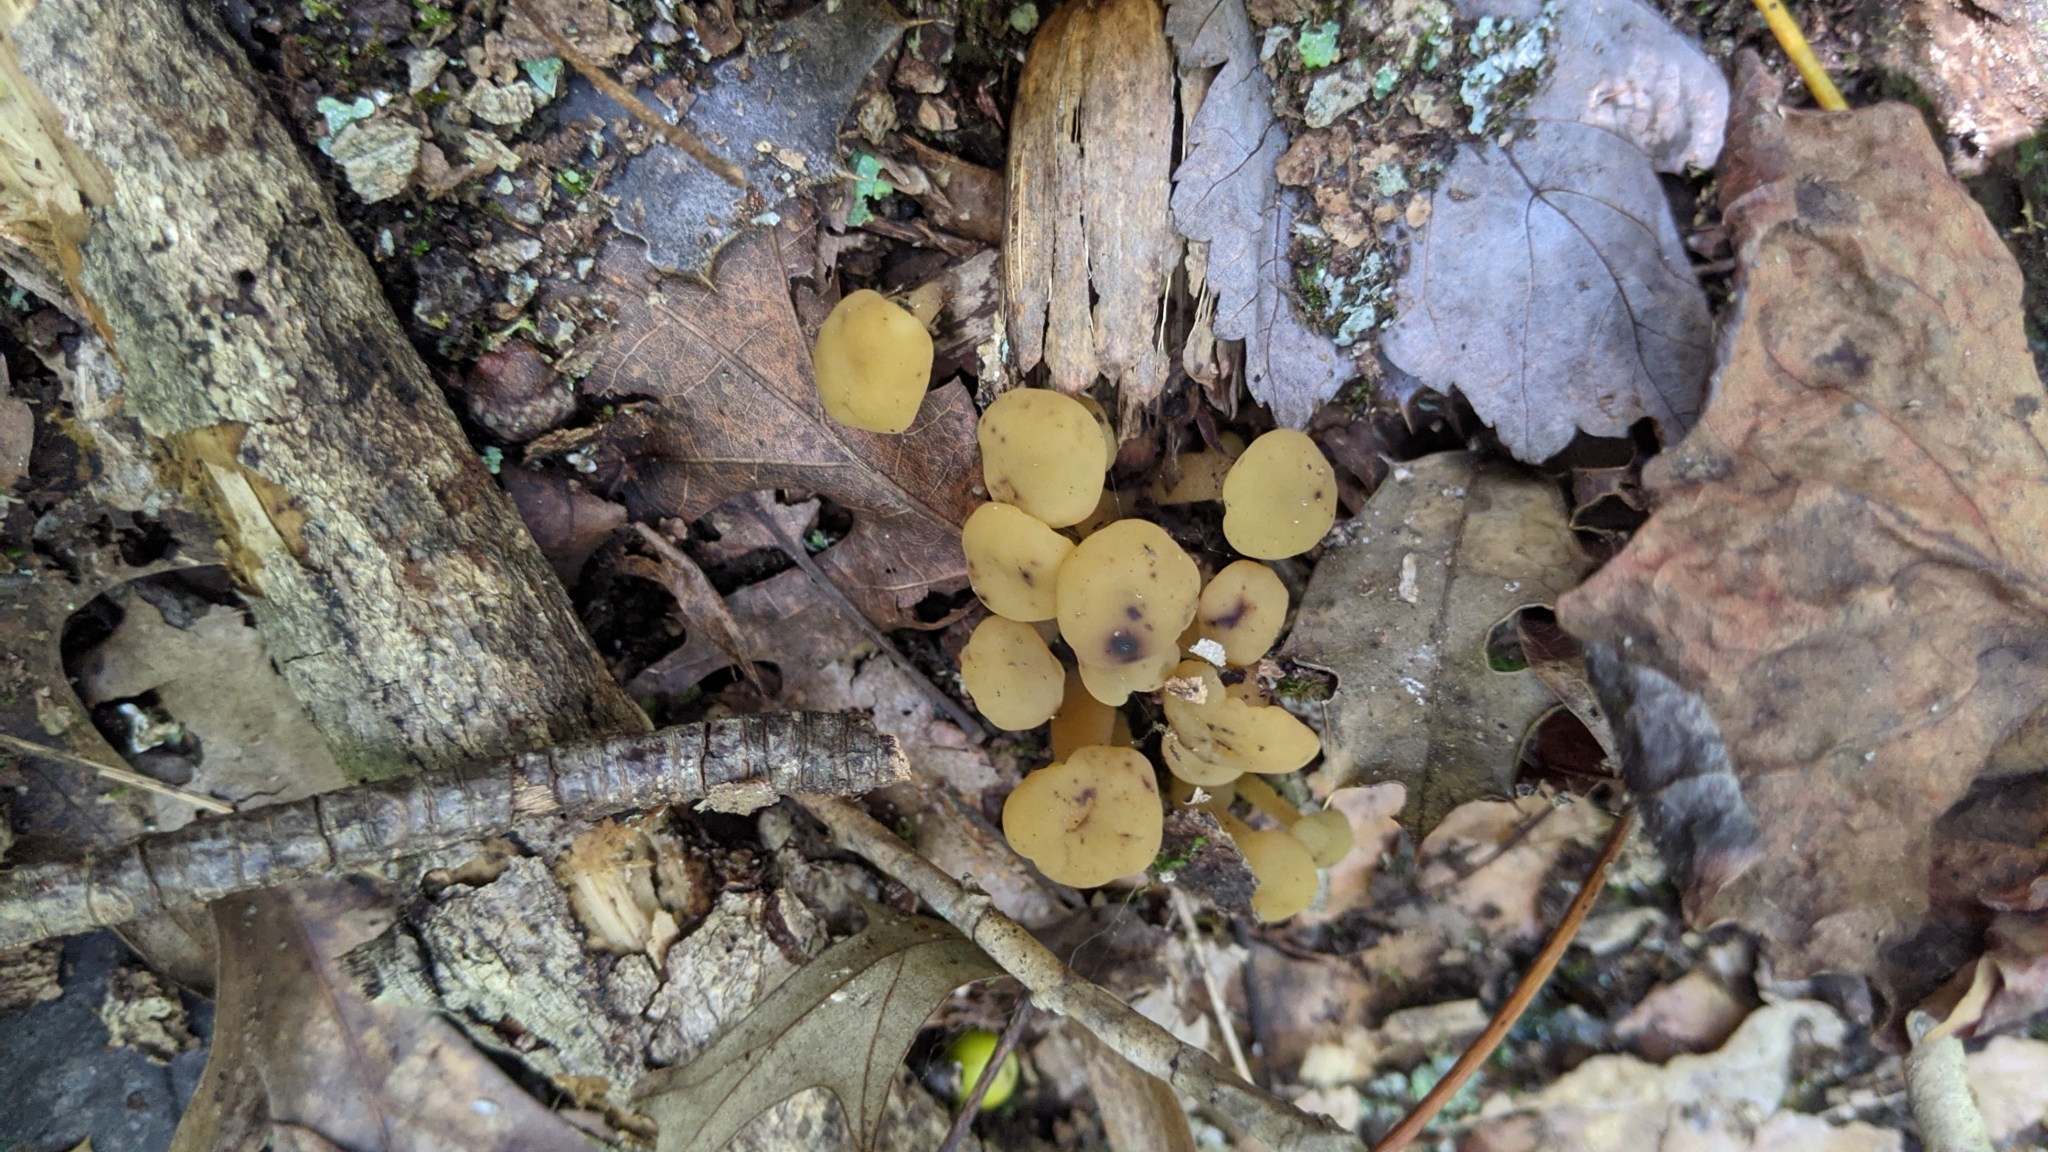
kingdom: Fungi
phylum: Ascomycota
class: Leotiomycetes
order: Leotiales
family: Leotiaceae
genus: Leotia
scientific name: Leotia lubrica
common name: Jellybaby
